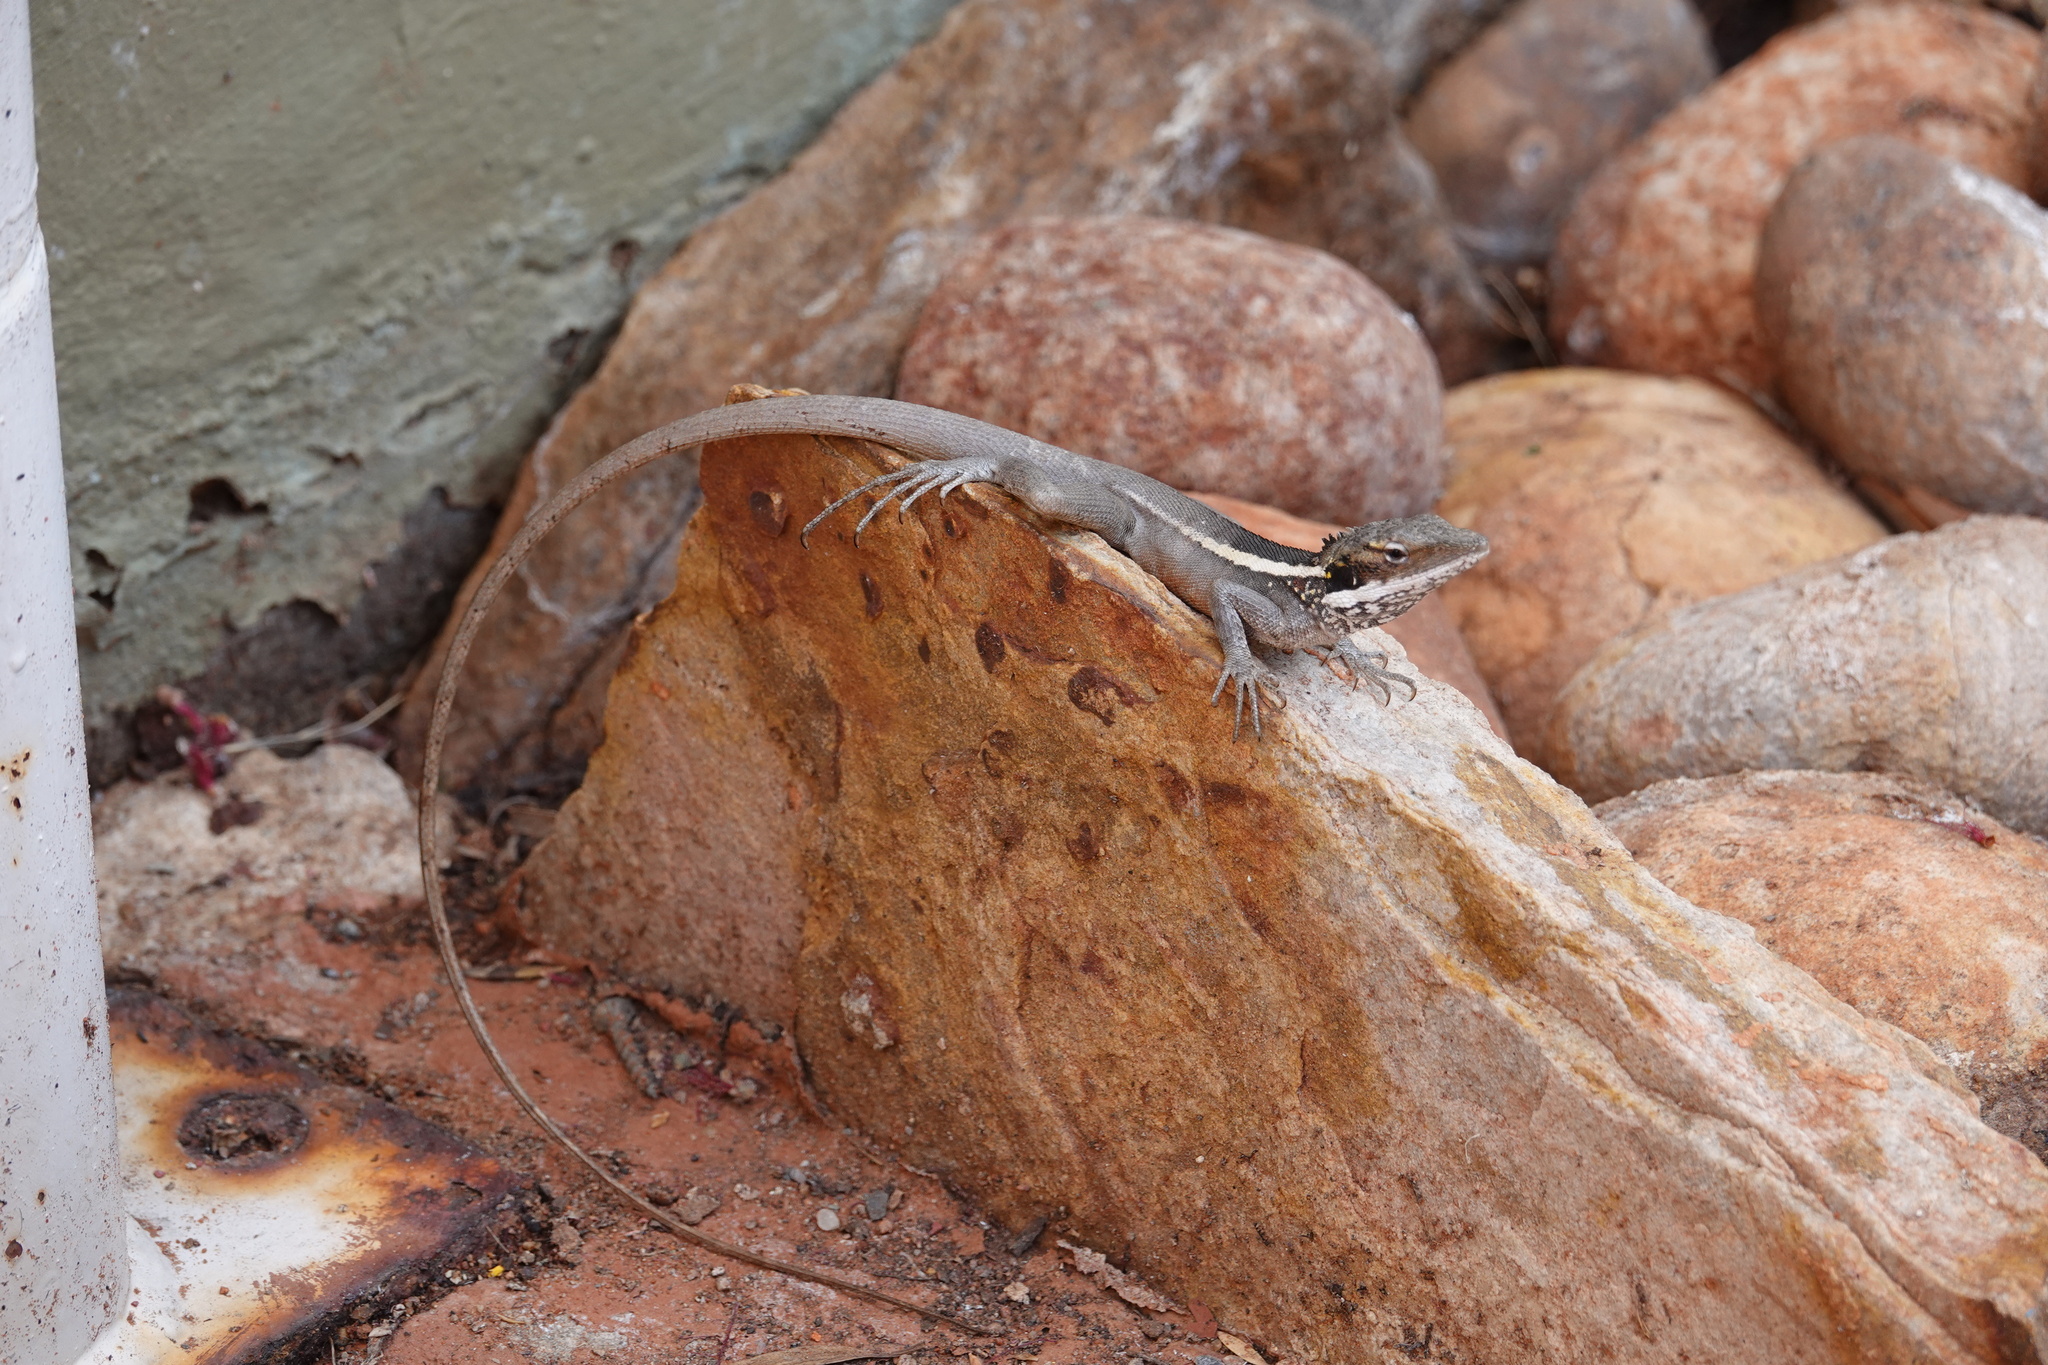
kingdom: Animalia
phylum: Chordata
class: Squamata
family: Agamidae
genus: Gowidon
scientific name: Gowidon longirostris
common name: Long-nosed water dragon
